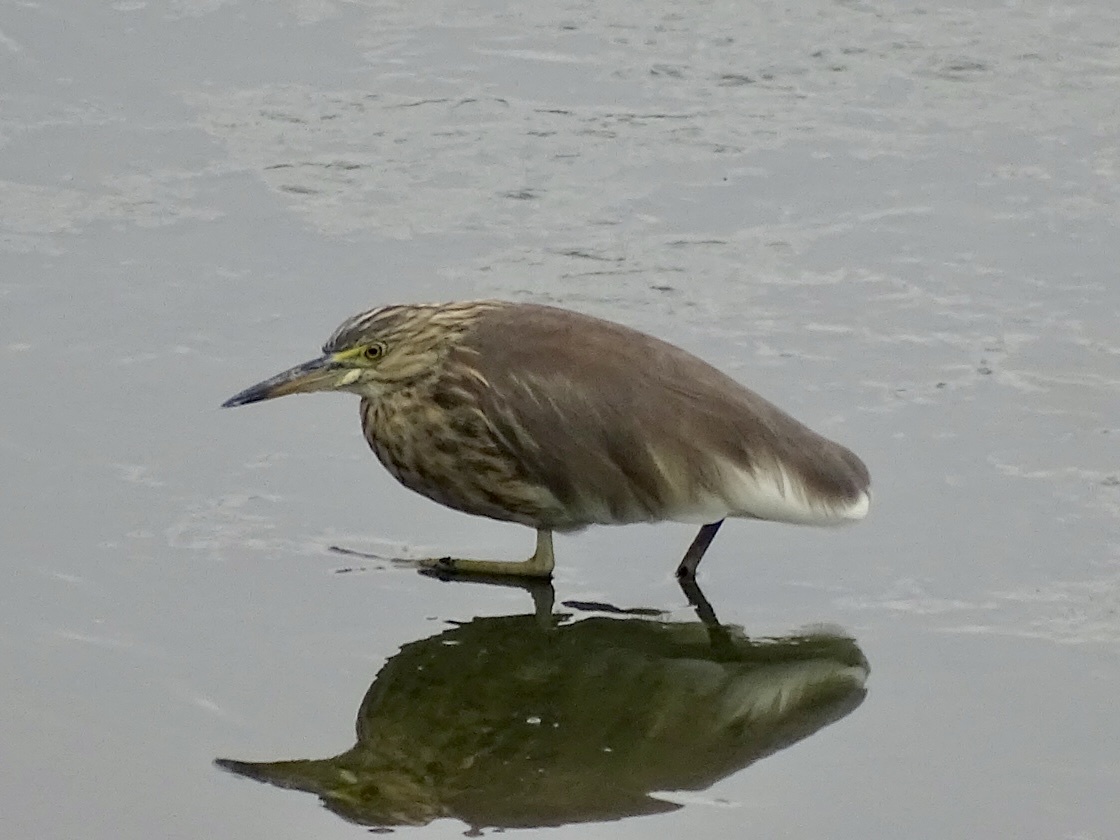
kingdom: Animalia
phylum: Chordata
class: Aves
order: Pelecaniformes
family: Ardeidae
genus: Ardeola
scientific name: Ardeola bacchus
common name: Chinese pond heron
